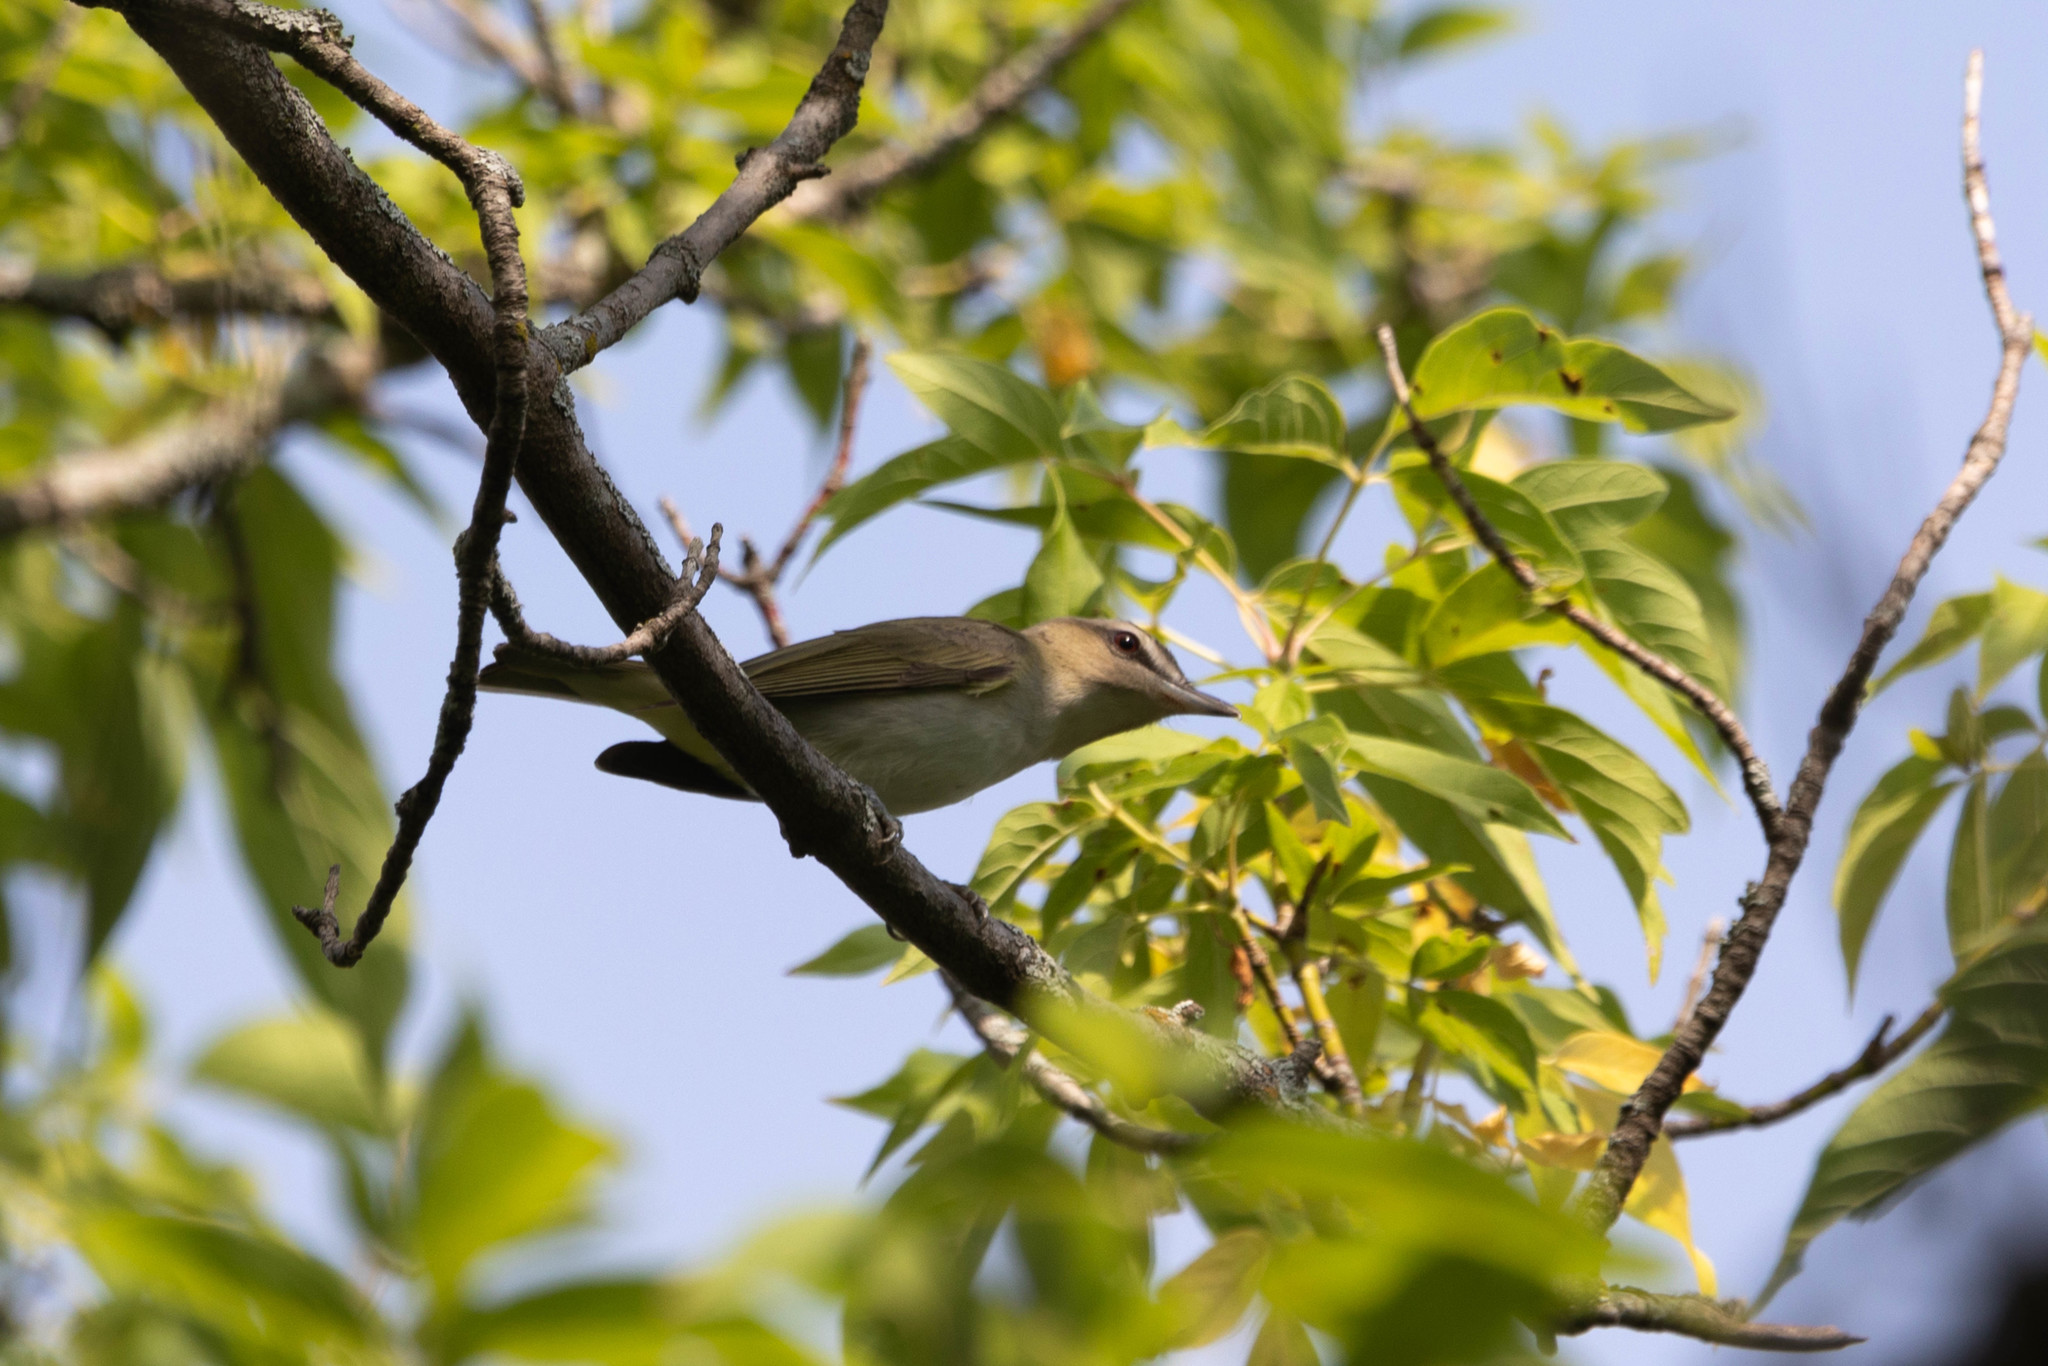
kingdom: Animalia
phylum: Chordata
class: Aves
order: Passeriformes
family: Vireonidae
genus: Vireo
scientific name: Vireo olivaceus
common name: Red-eyed vireo
